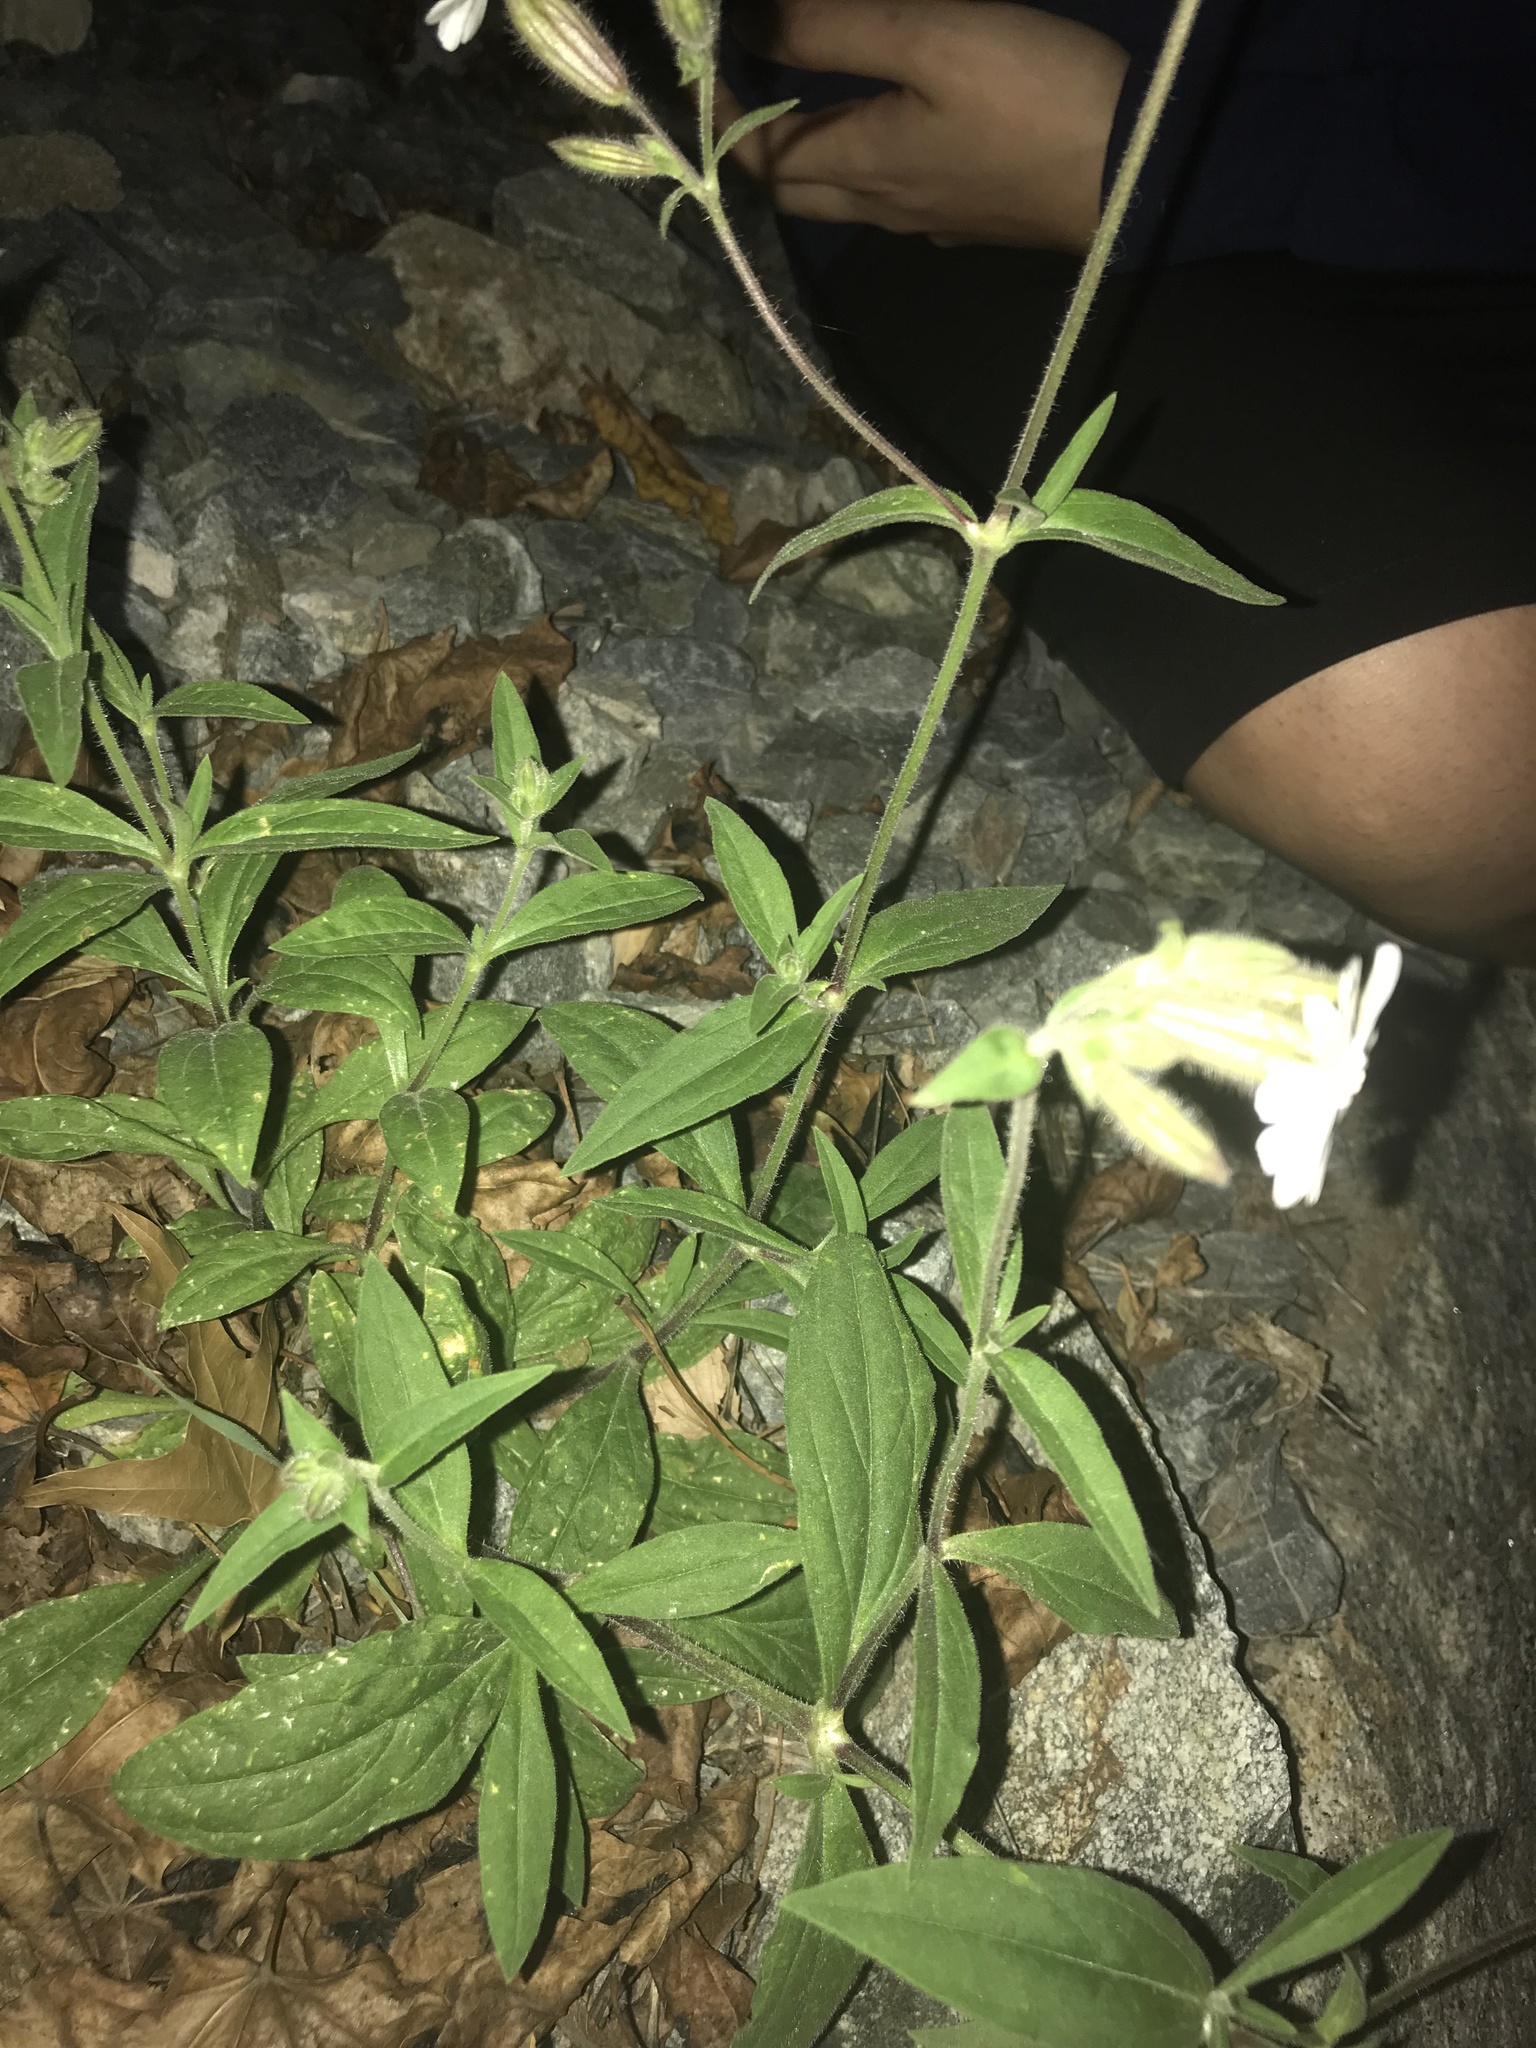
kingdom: Plantae
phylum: Tracheophyta
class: Magnoliopsida
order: Caryophyllales
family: Caryophyllaceae
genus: Silene
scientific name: Silene latifolia
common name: White campion
